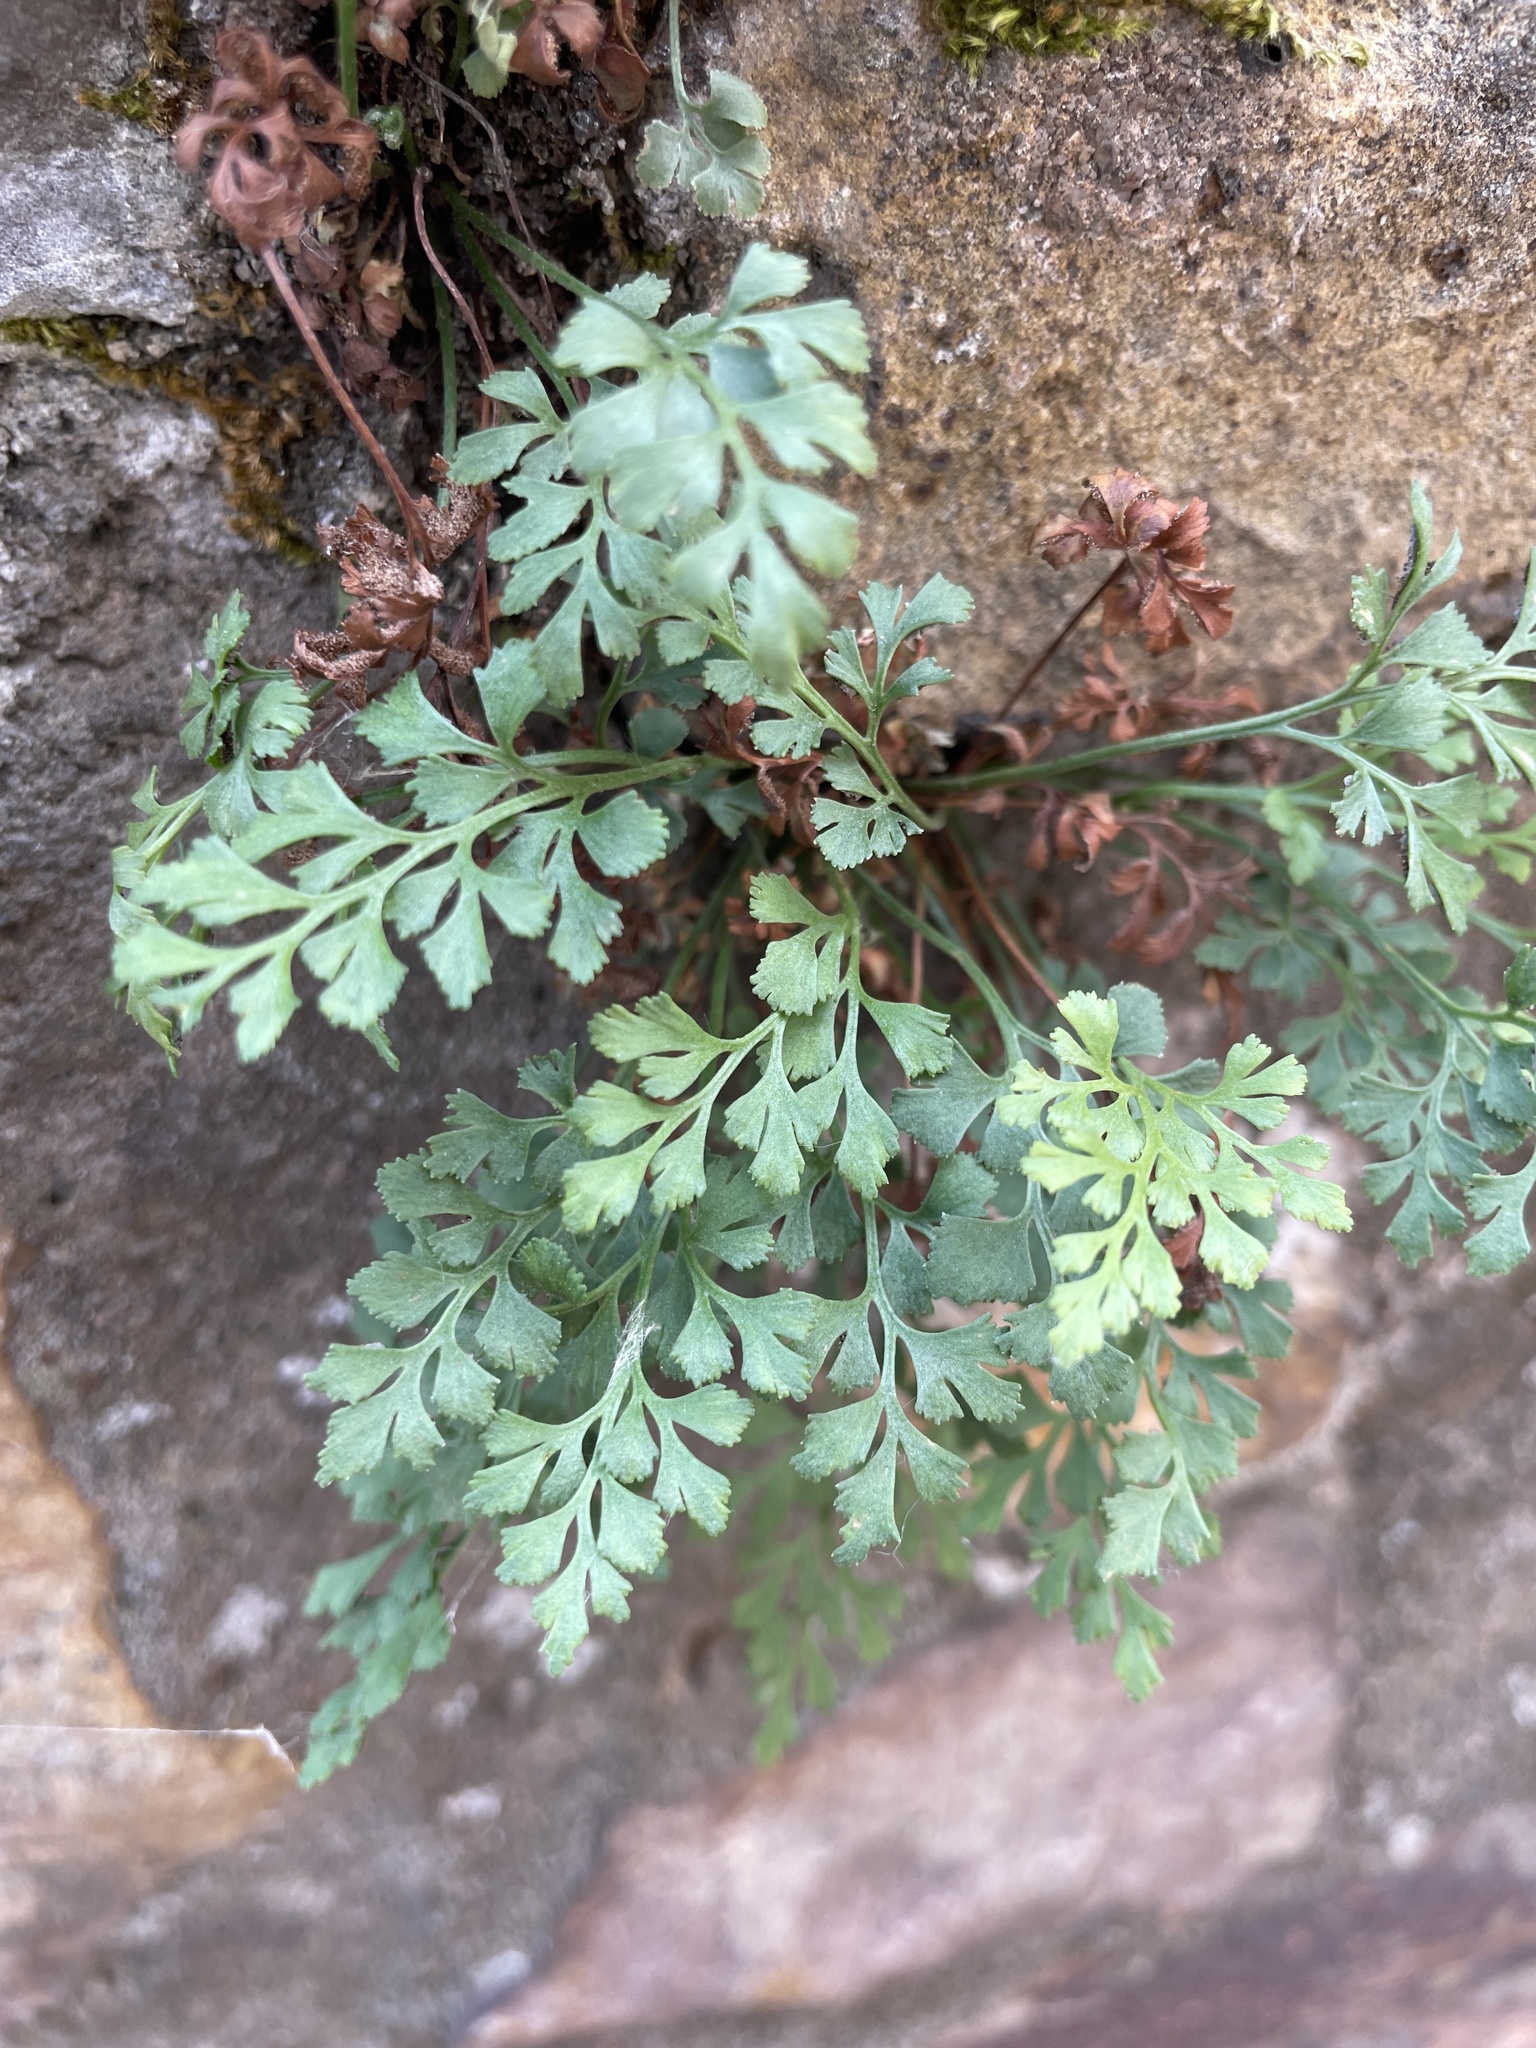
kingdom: Plantae
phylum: Tracheophyta
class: Polypodiopsida
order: Polypodiales
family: Aspleniaceae
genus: Asplenium
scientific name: Asplenium ruta-muraria
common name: Wall-rue
